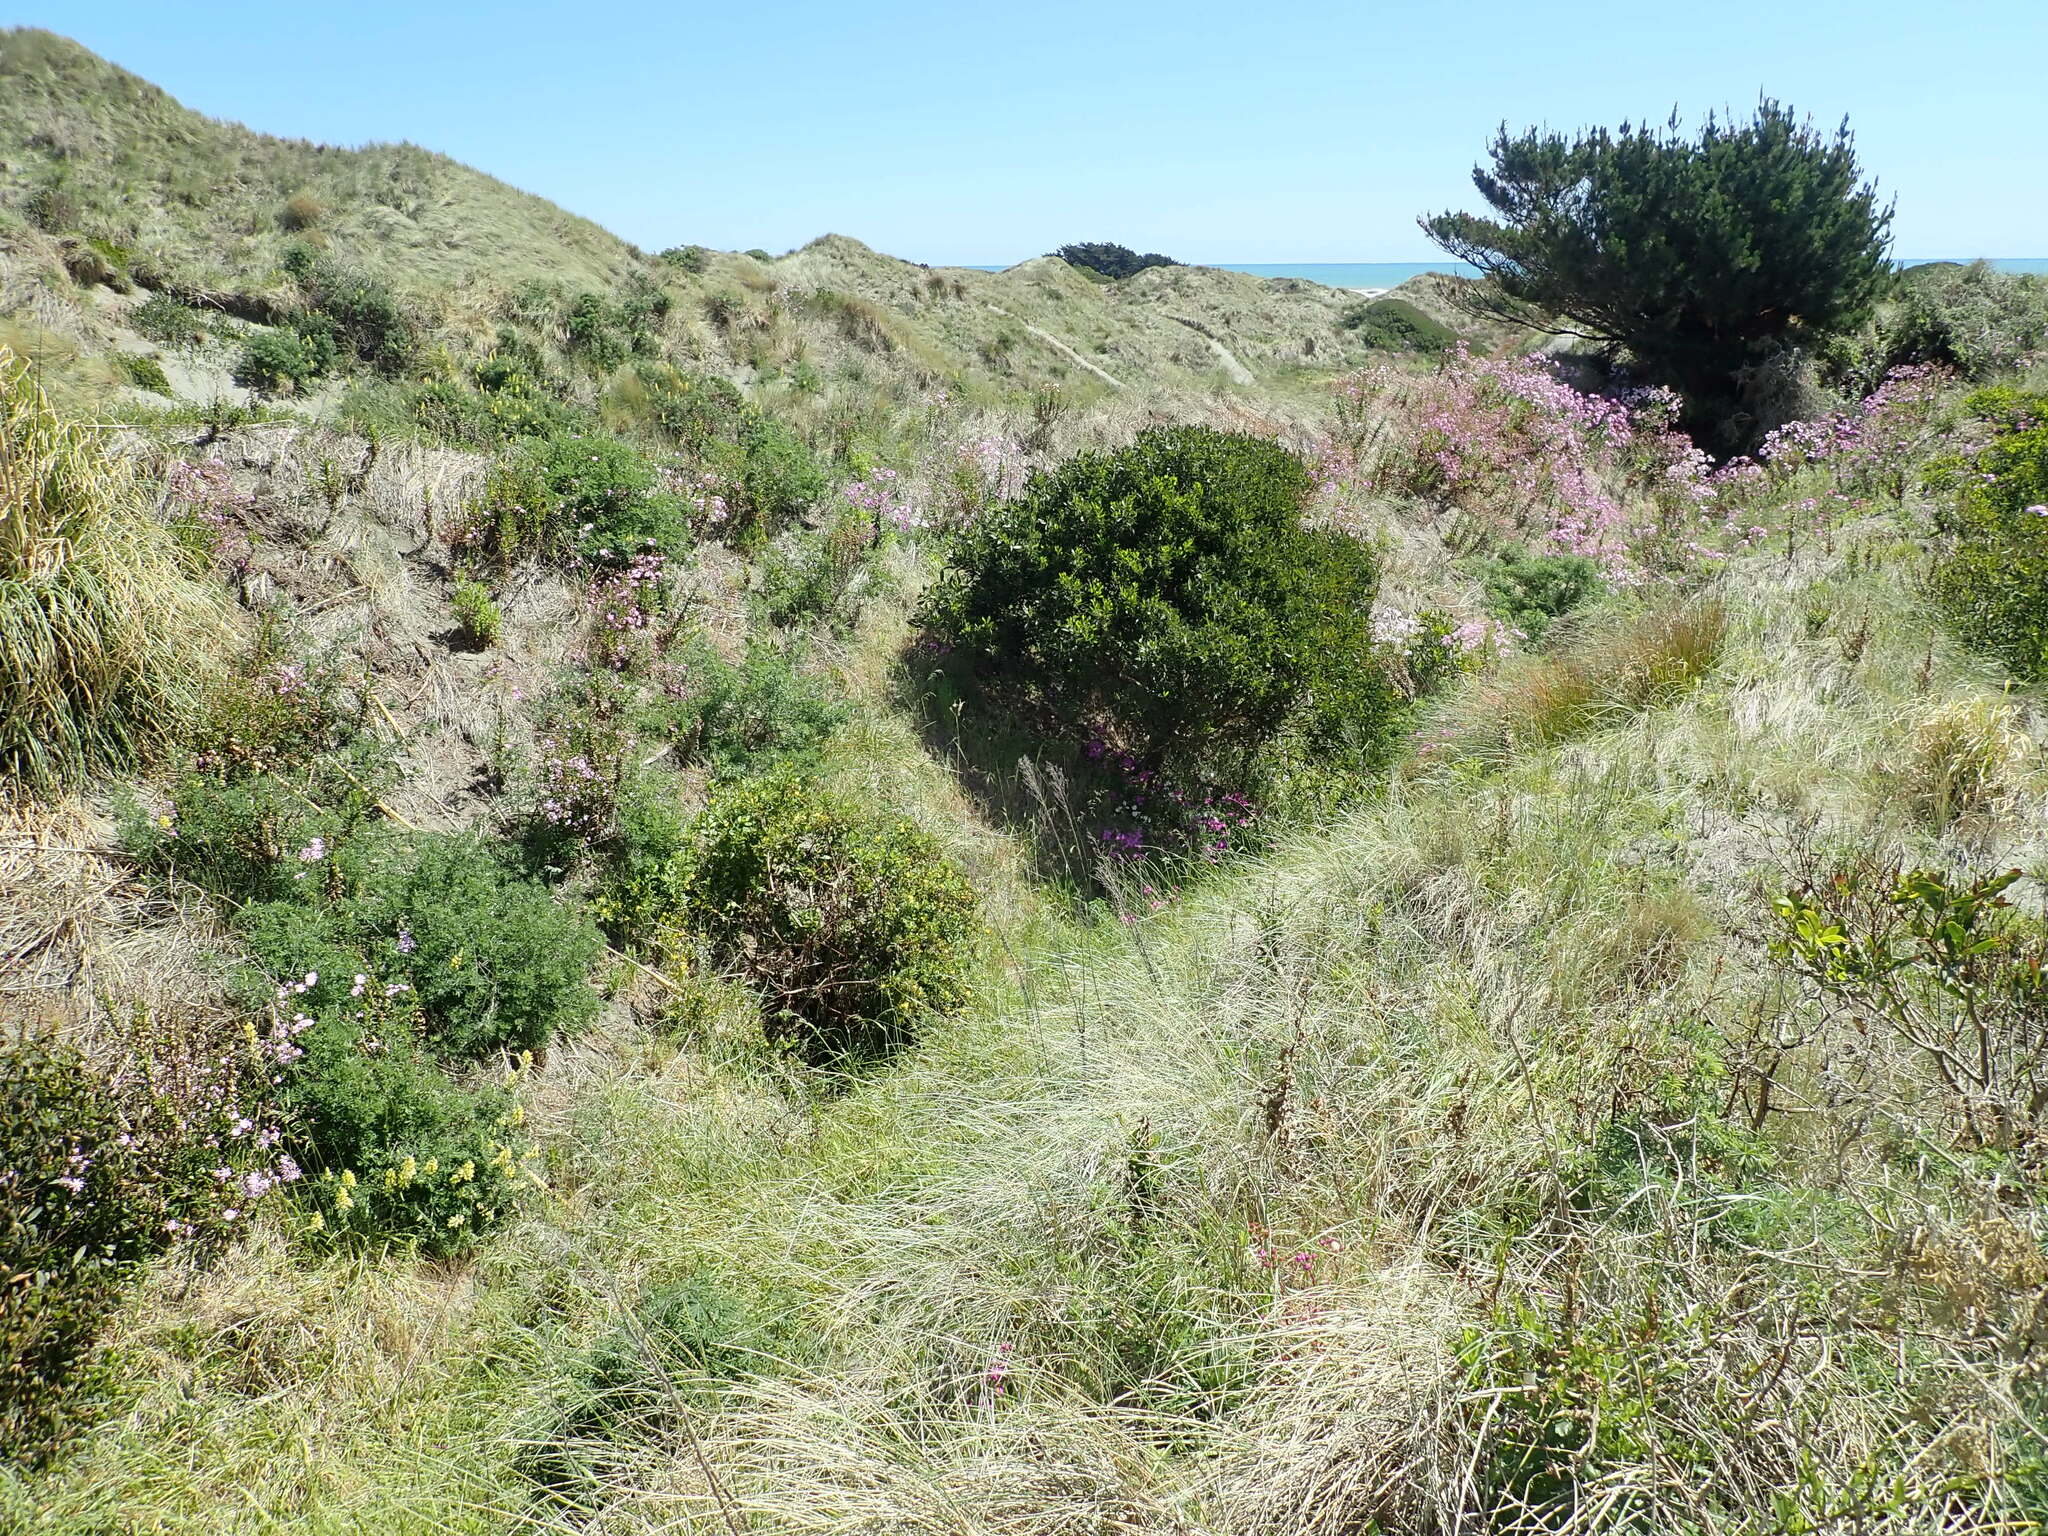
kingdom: Plantae
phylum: Tracheophyta
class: Magnoliopsida
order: Asterales
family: Asteraceae
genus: Osteospermum
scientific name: Osteospermum moniliferum
